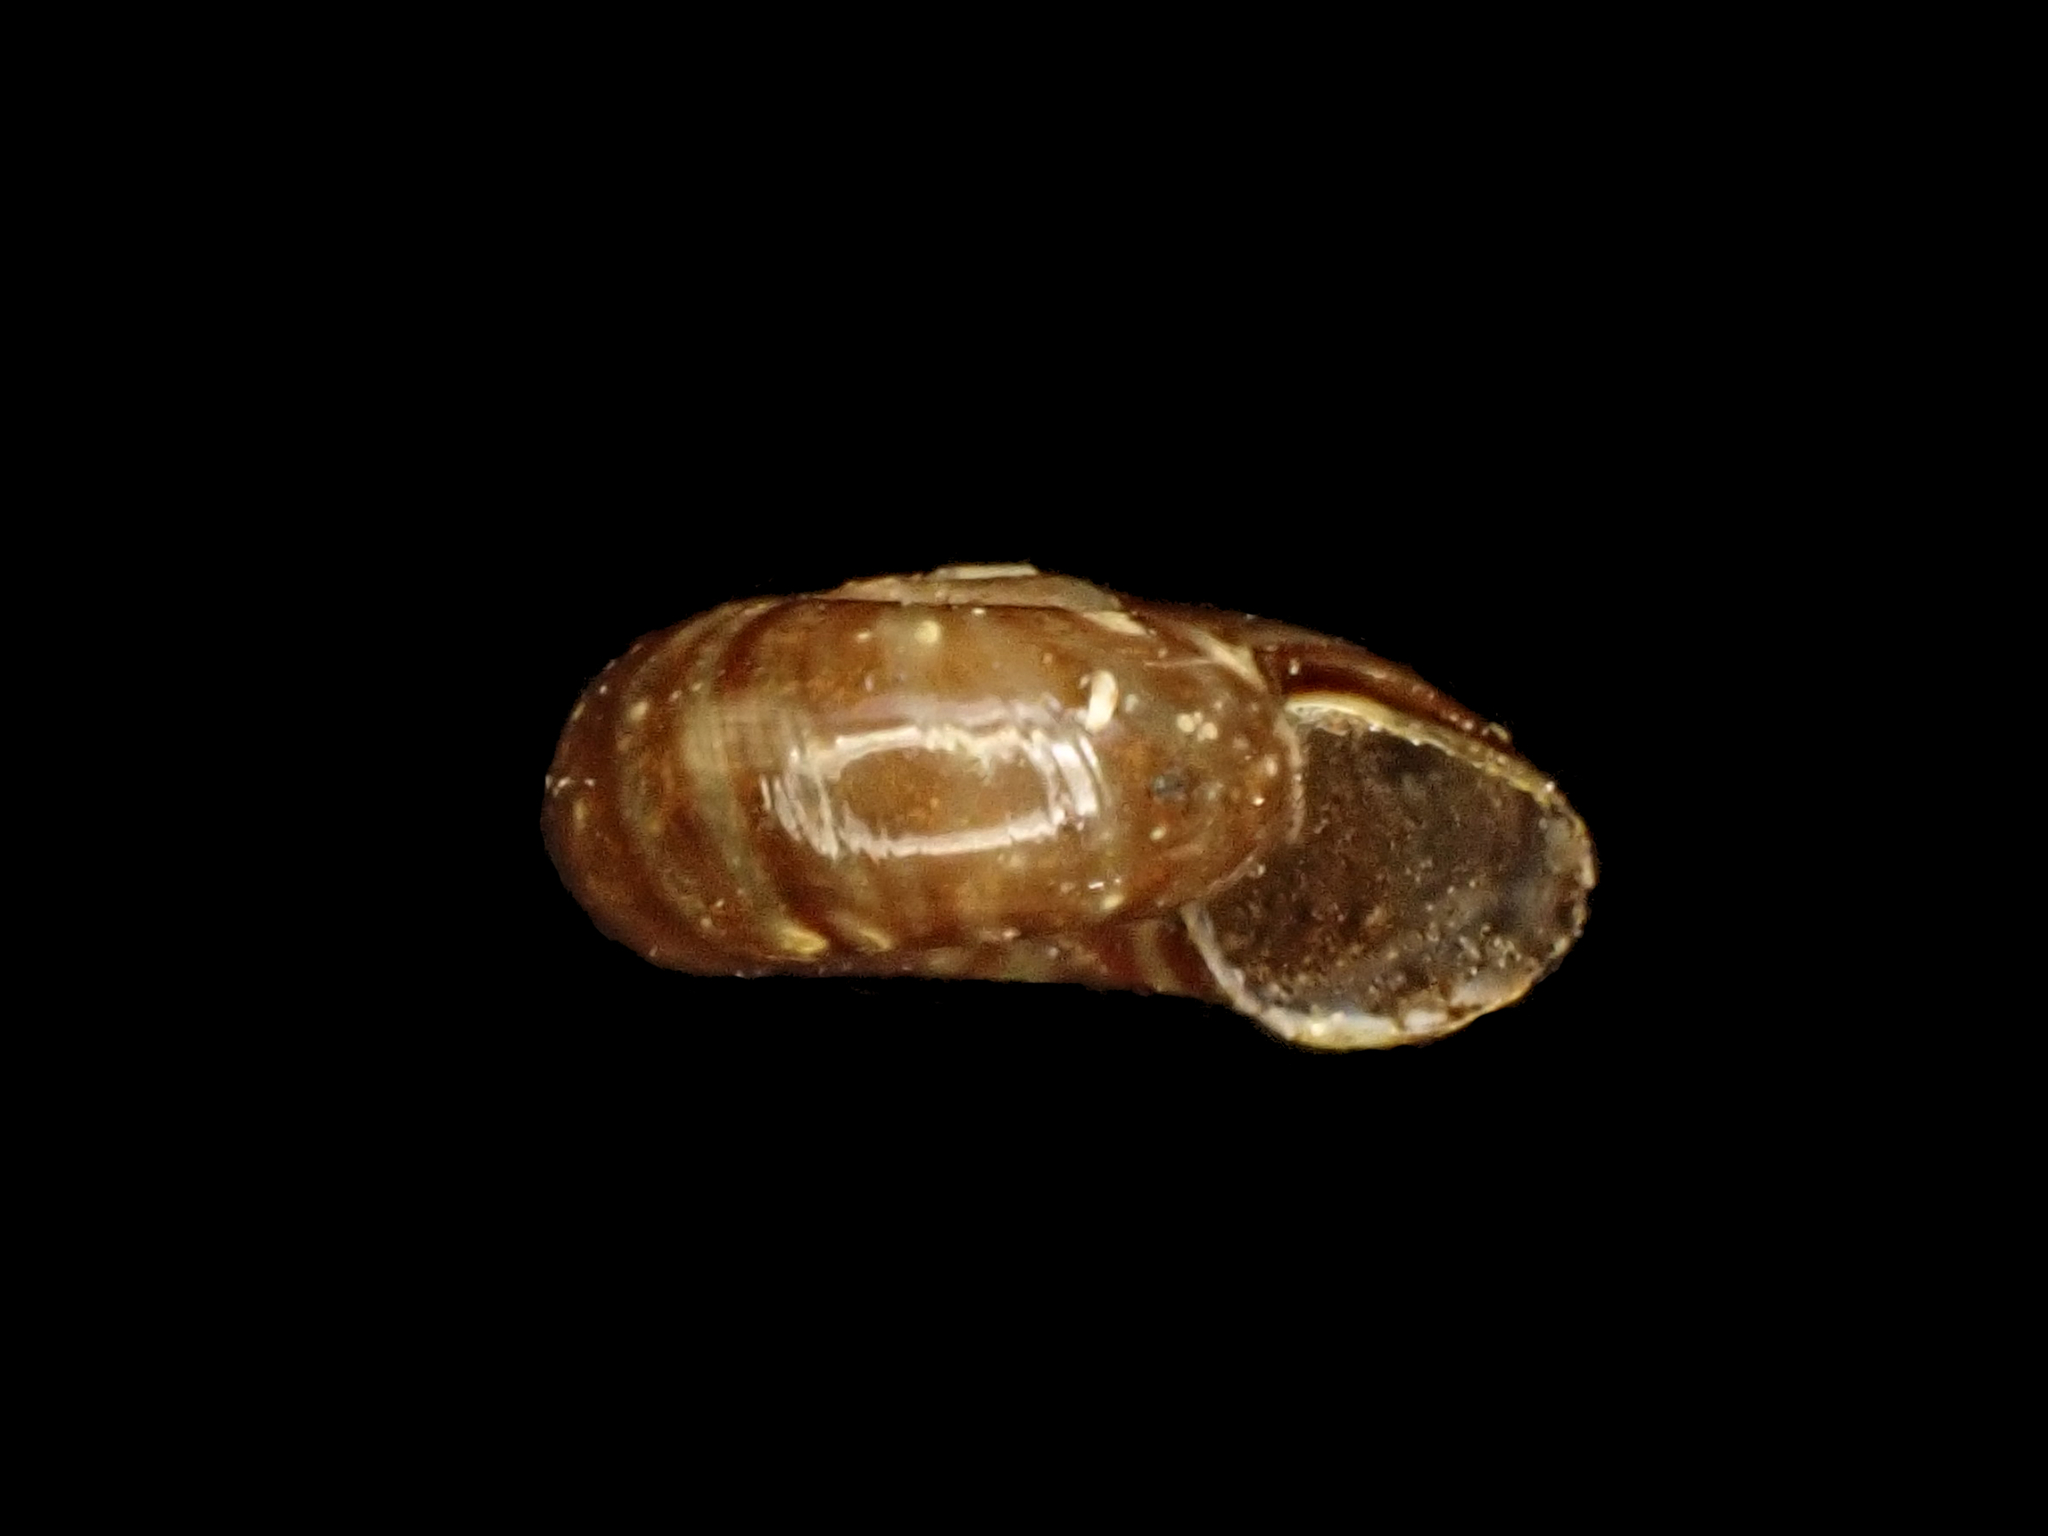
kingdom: Animalia
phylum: Mollusca
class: Gastropoda
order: Stylommatophora
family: Rhytididae
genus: Delos
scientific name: Delos
